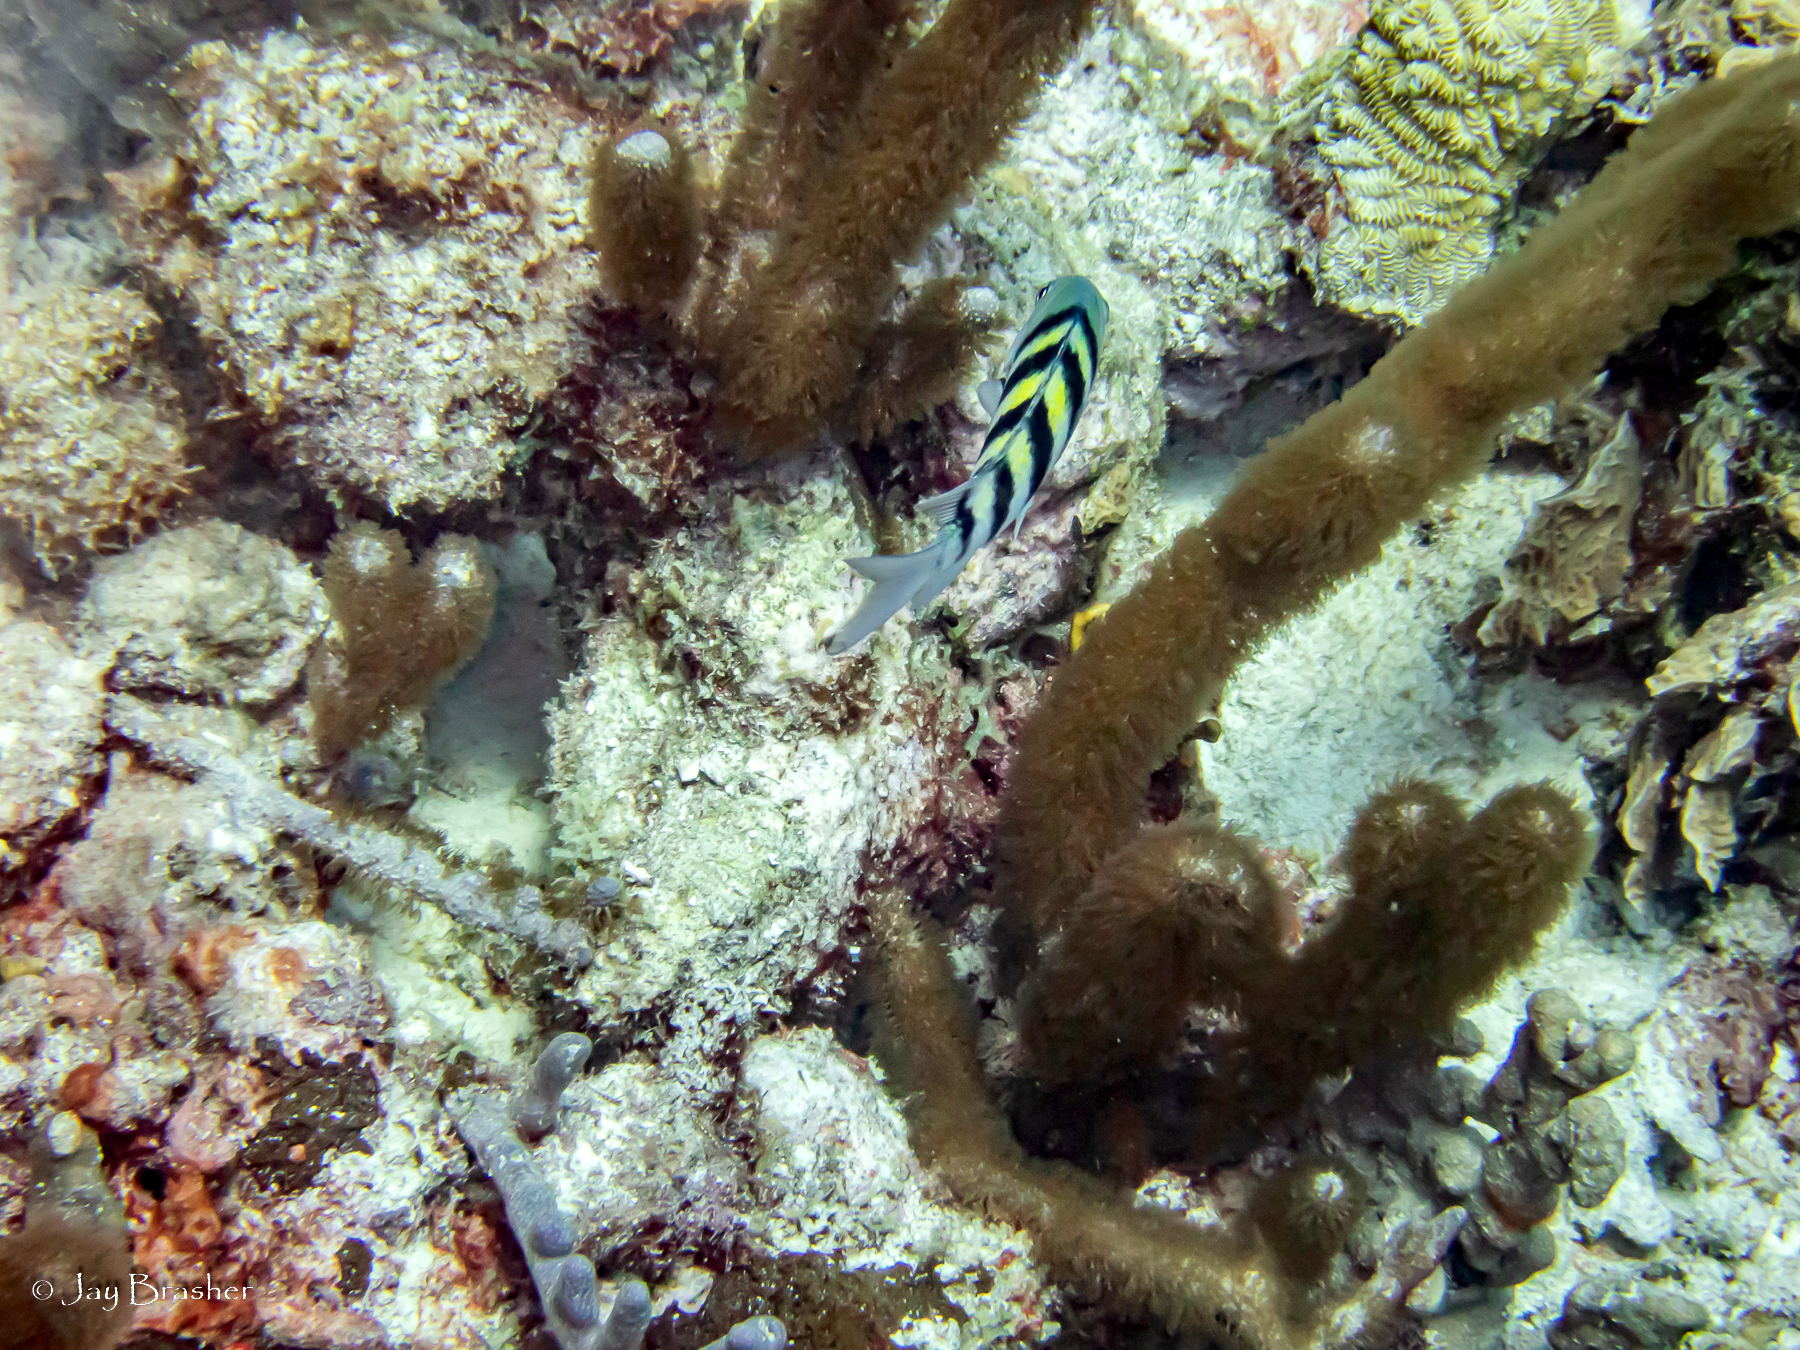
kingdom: Animalia
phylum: Chordata
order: Perciformes
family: Pomacentridae
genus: Abudefduf
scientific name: Abudefduf saxatilis
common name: Sergeant major
